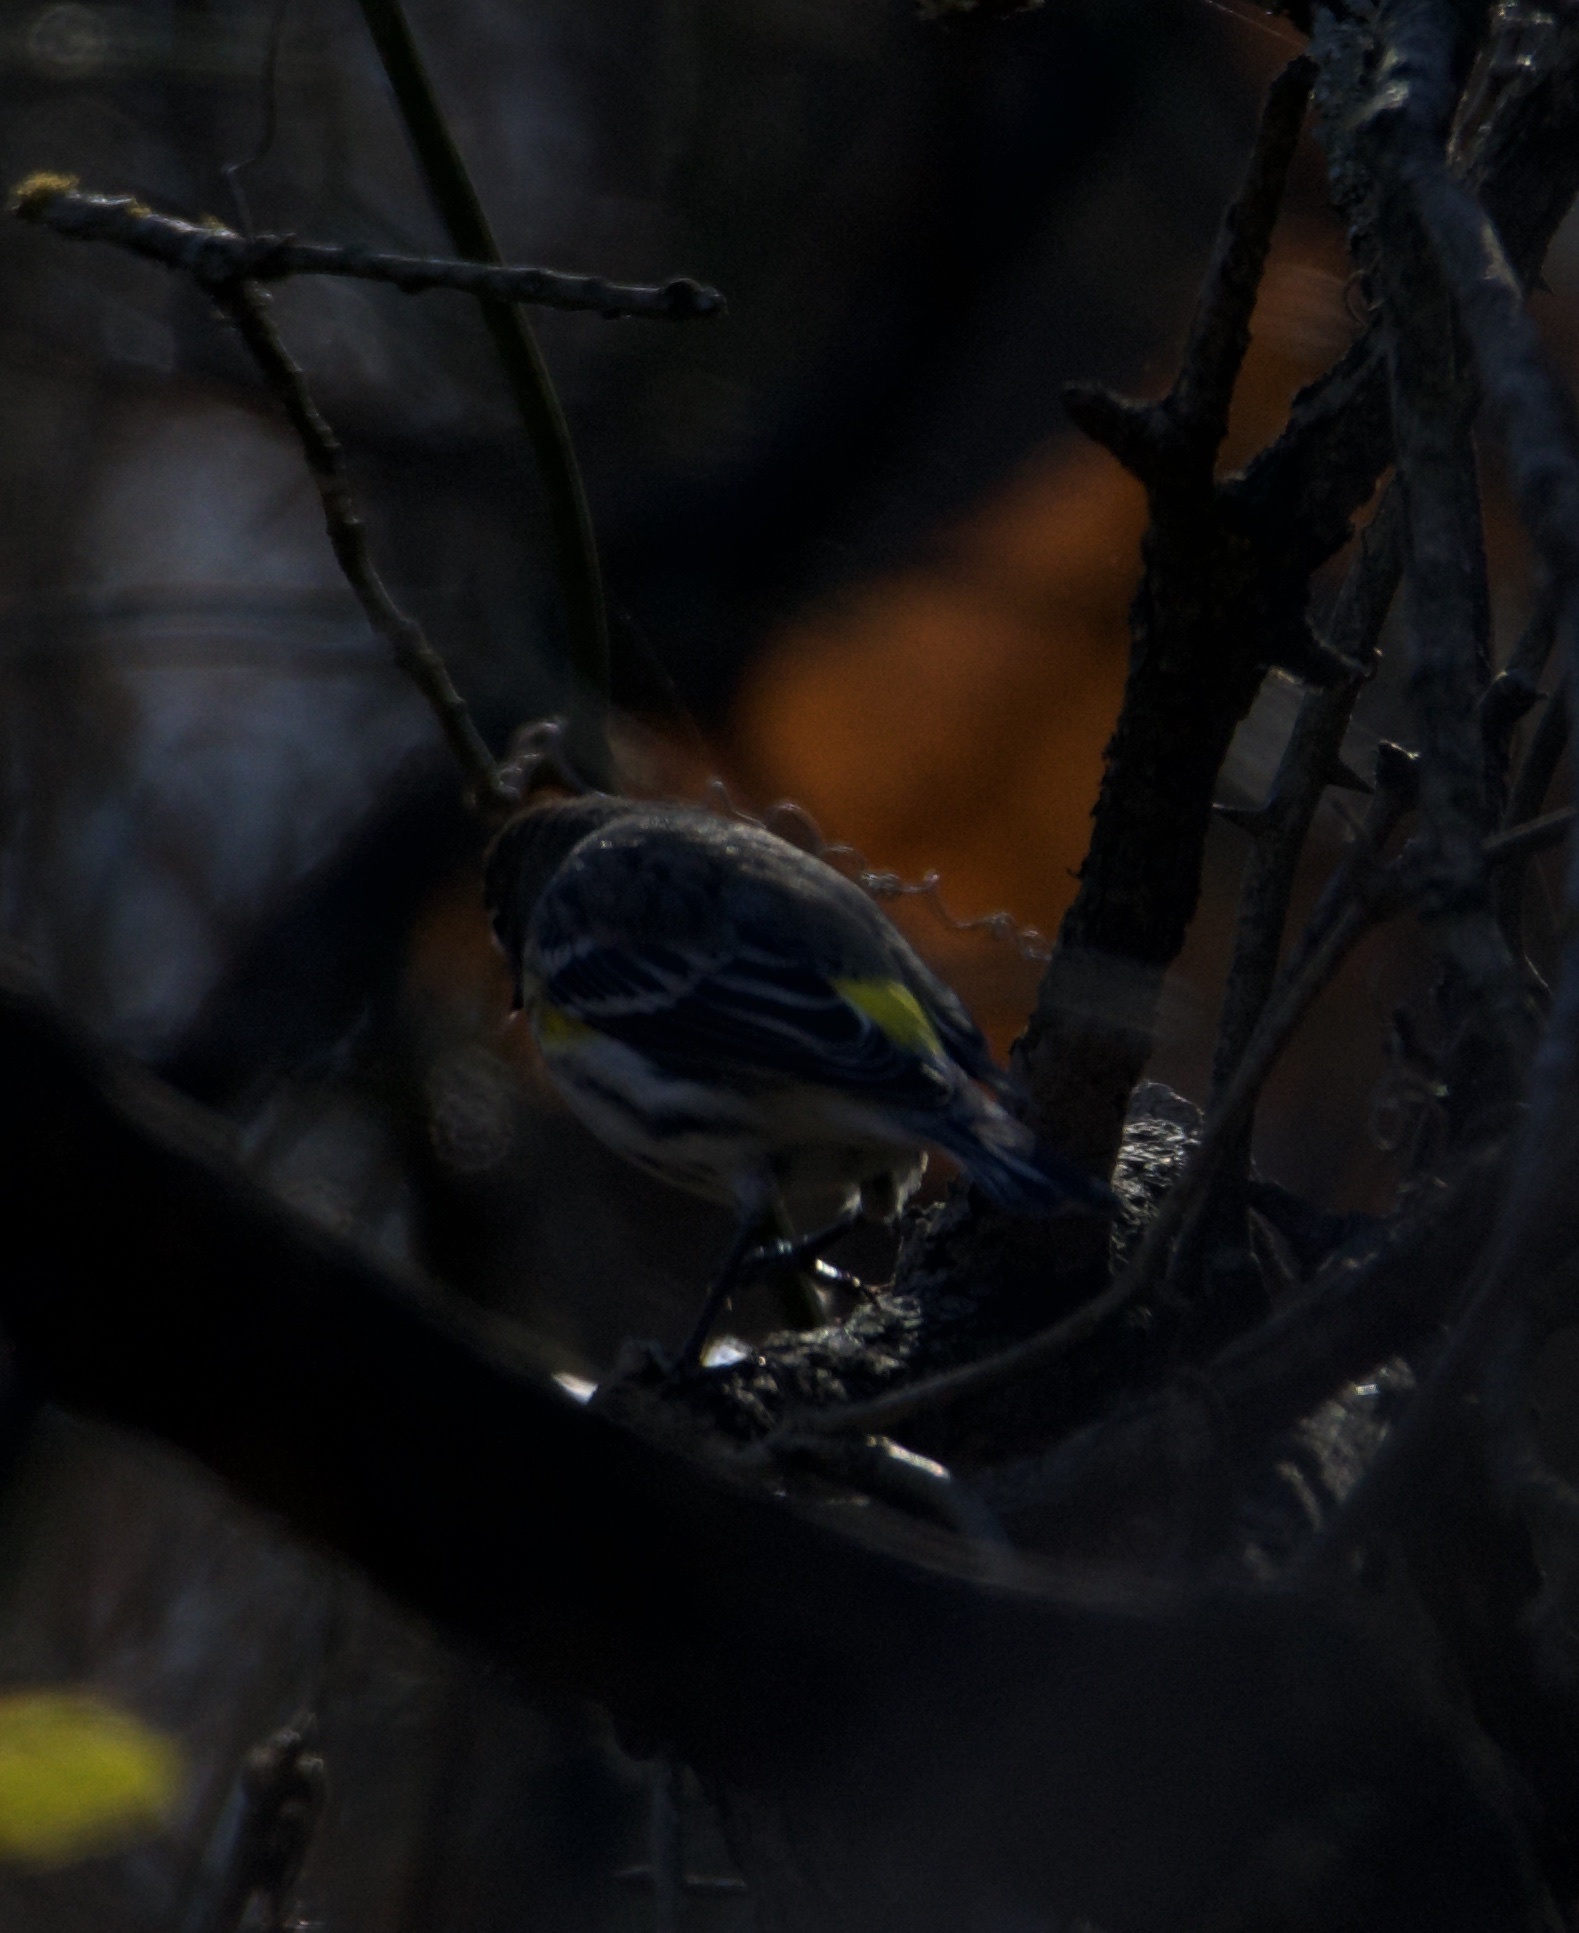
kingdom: Animalia
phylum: Chordata
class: Aves
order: Passeriformes
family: Parulidae
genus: Setophaga
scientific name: Setophaga coronata
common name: Myrtle warbler
